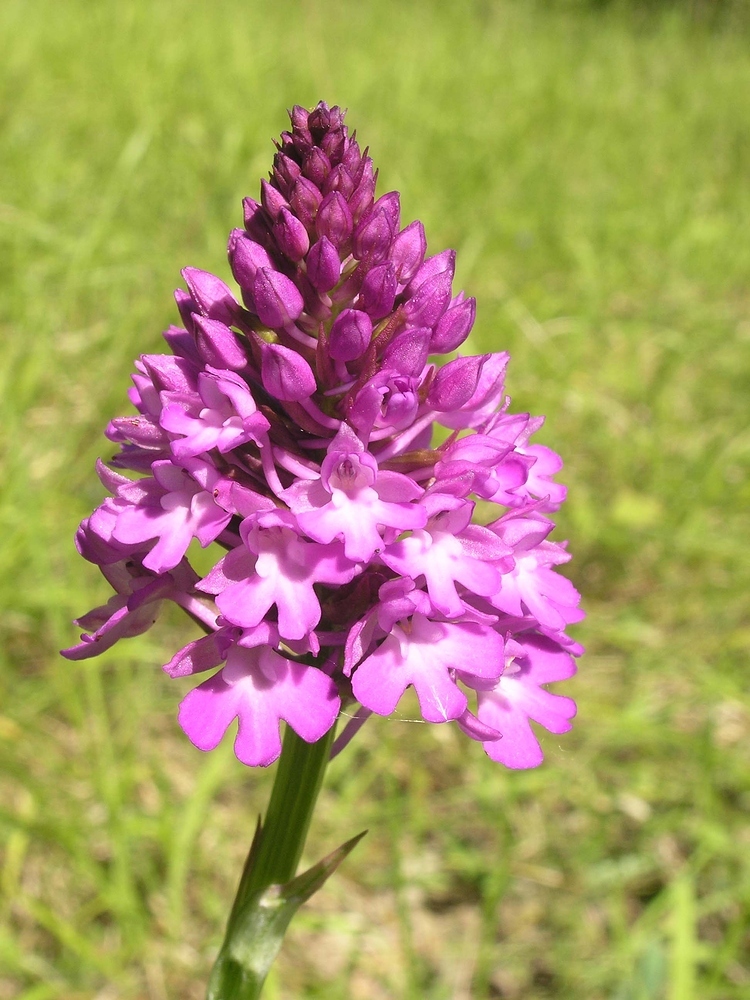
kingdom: Plantae
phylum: Tracheophyta
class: Liliopsida
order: Asparagales
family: Orchidaceae
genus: Anacamptis
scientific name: Anacamptis pyramidalis
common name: Pyramidal orchid
